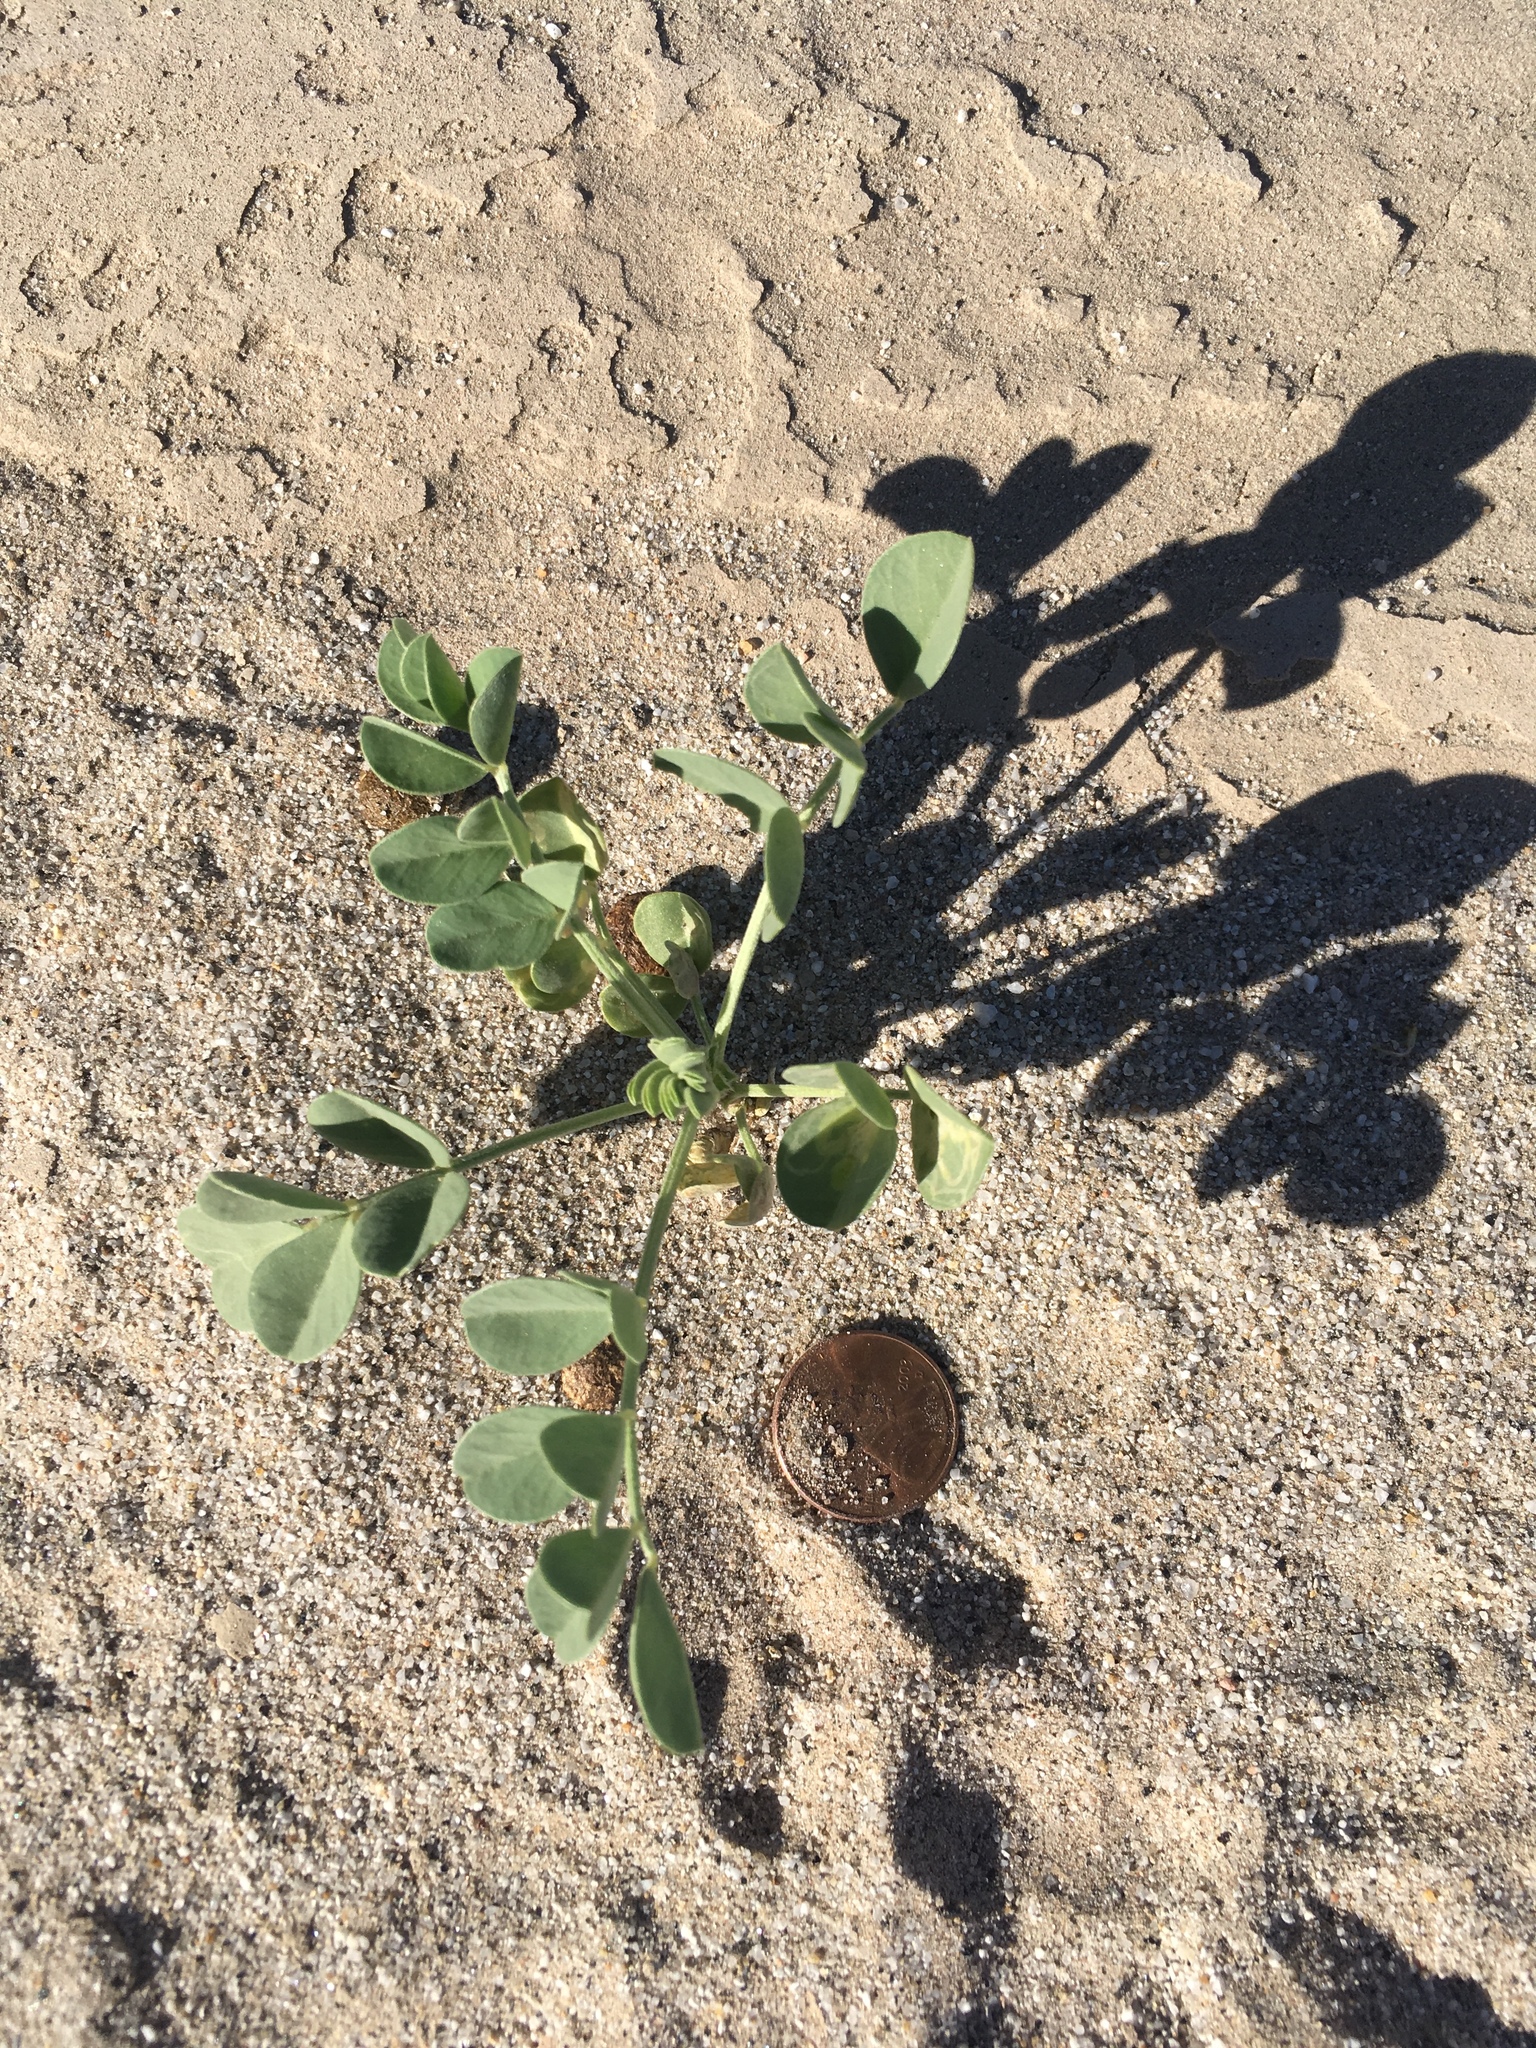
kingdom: Plantae
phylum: Tracheophyta
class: Magnoliopsida
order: Fabales
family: Fabaceae
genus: Astragalus
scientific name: Astragalus crotalariae
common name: Salton milkvetch
